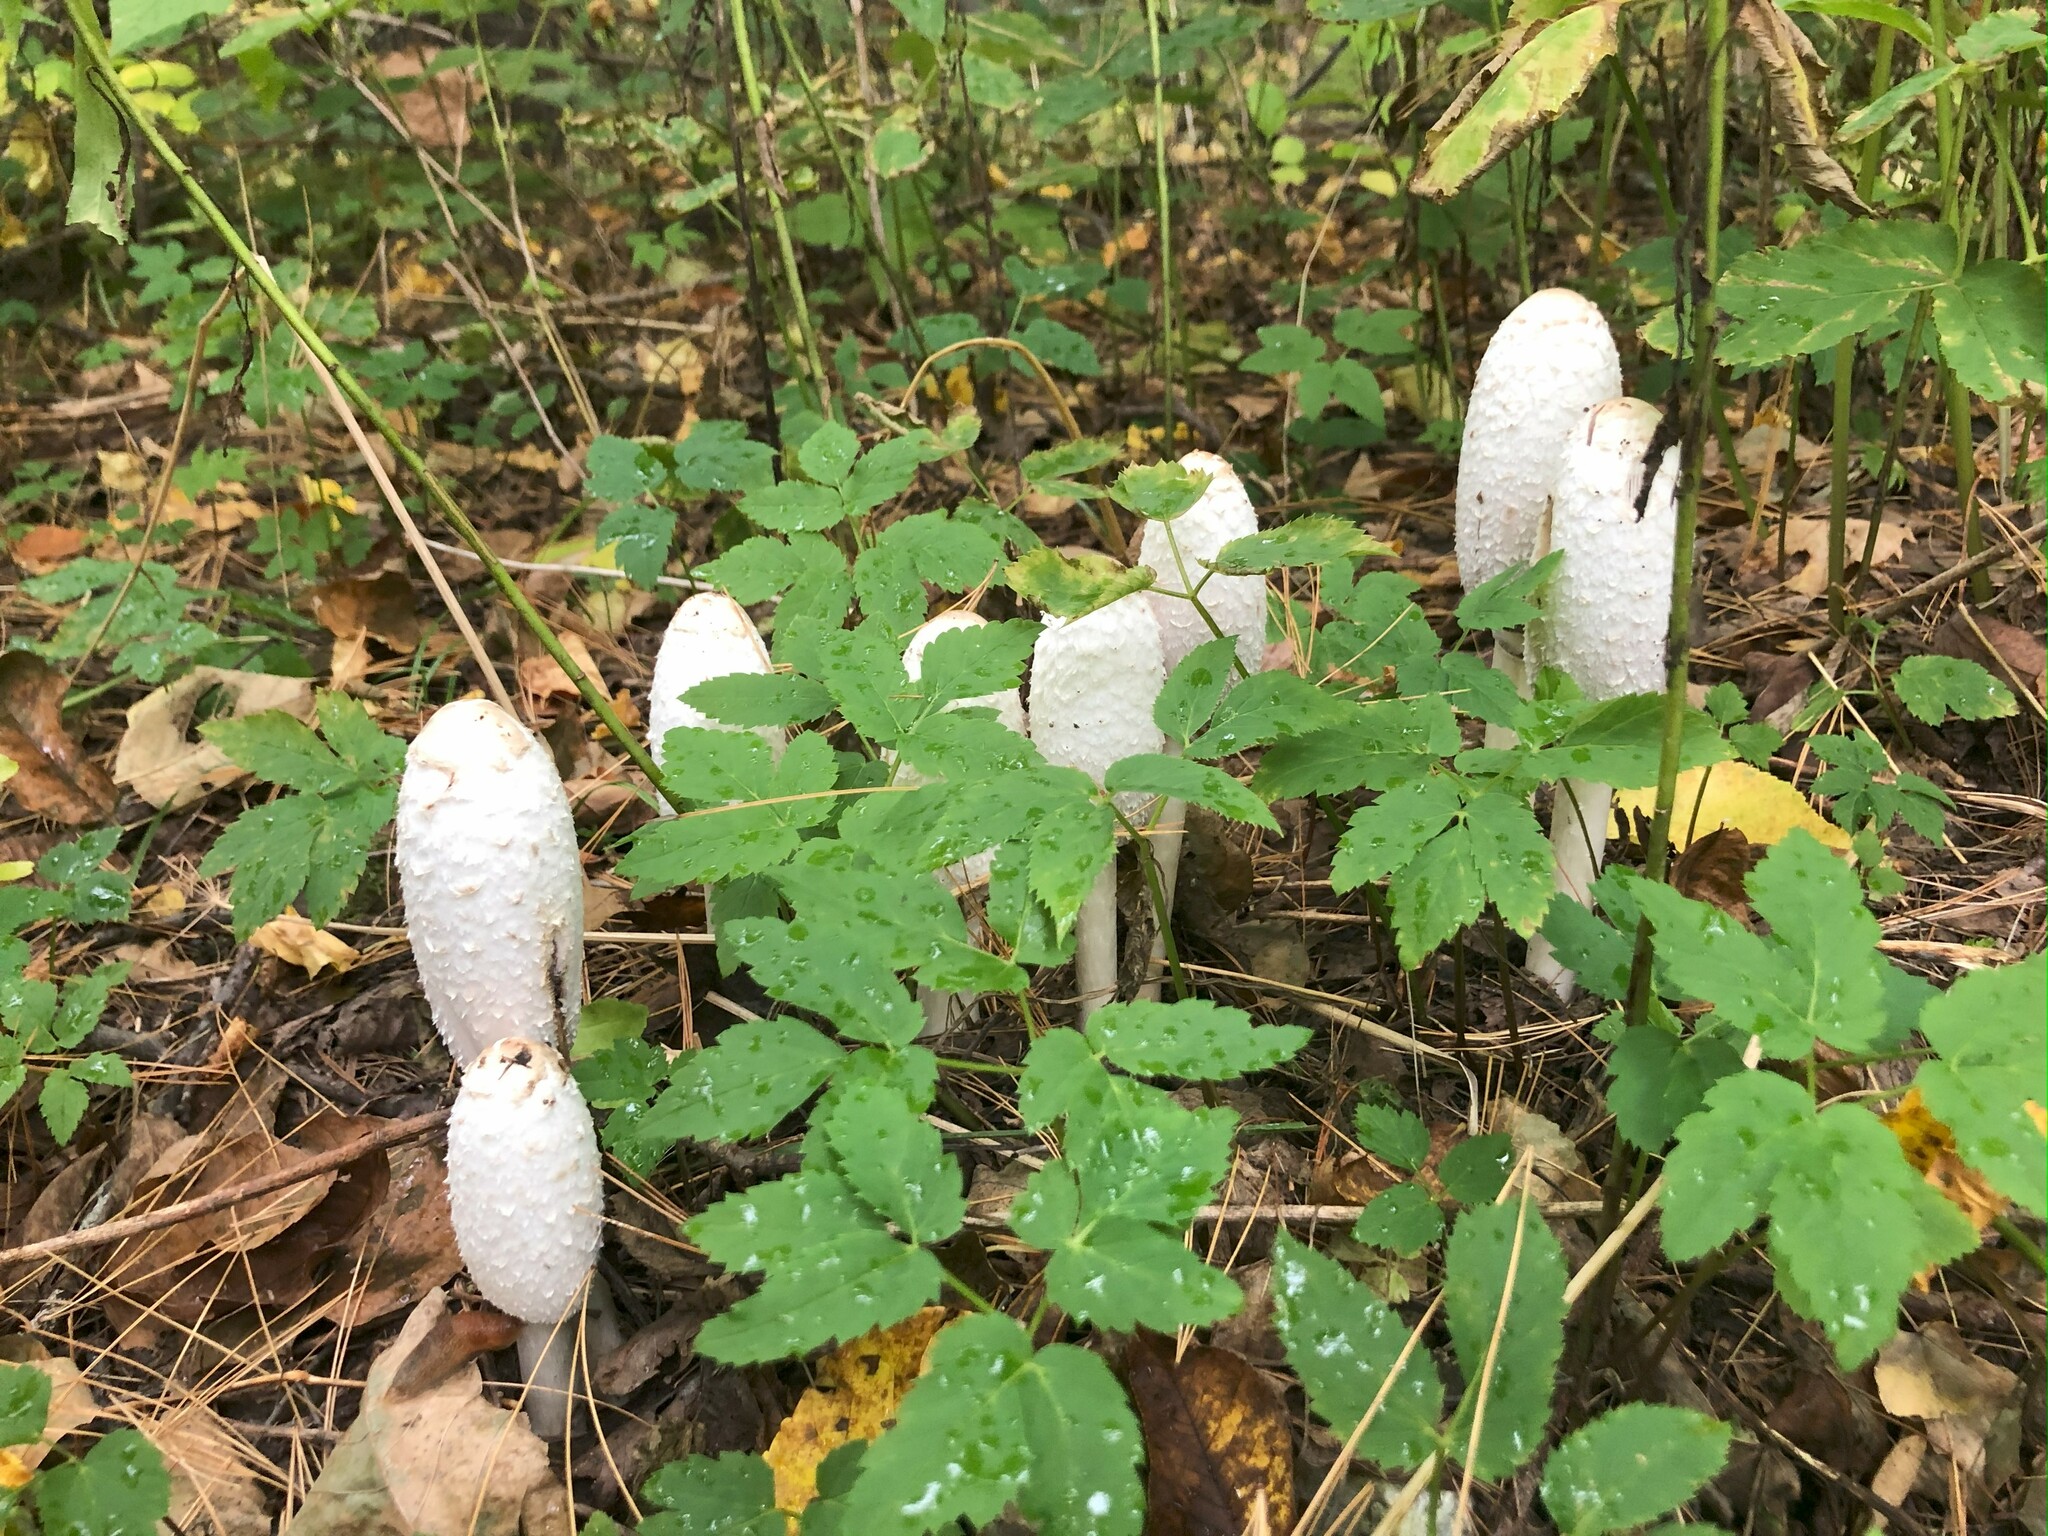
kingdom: Fungi
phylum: Basidiomycota
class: Agaricomycetes
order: Agaricales
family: Agaricaceae
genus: Coprinus
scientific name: Coprinus comatus
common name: Lawyer's wig
